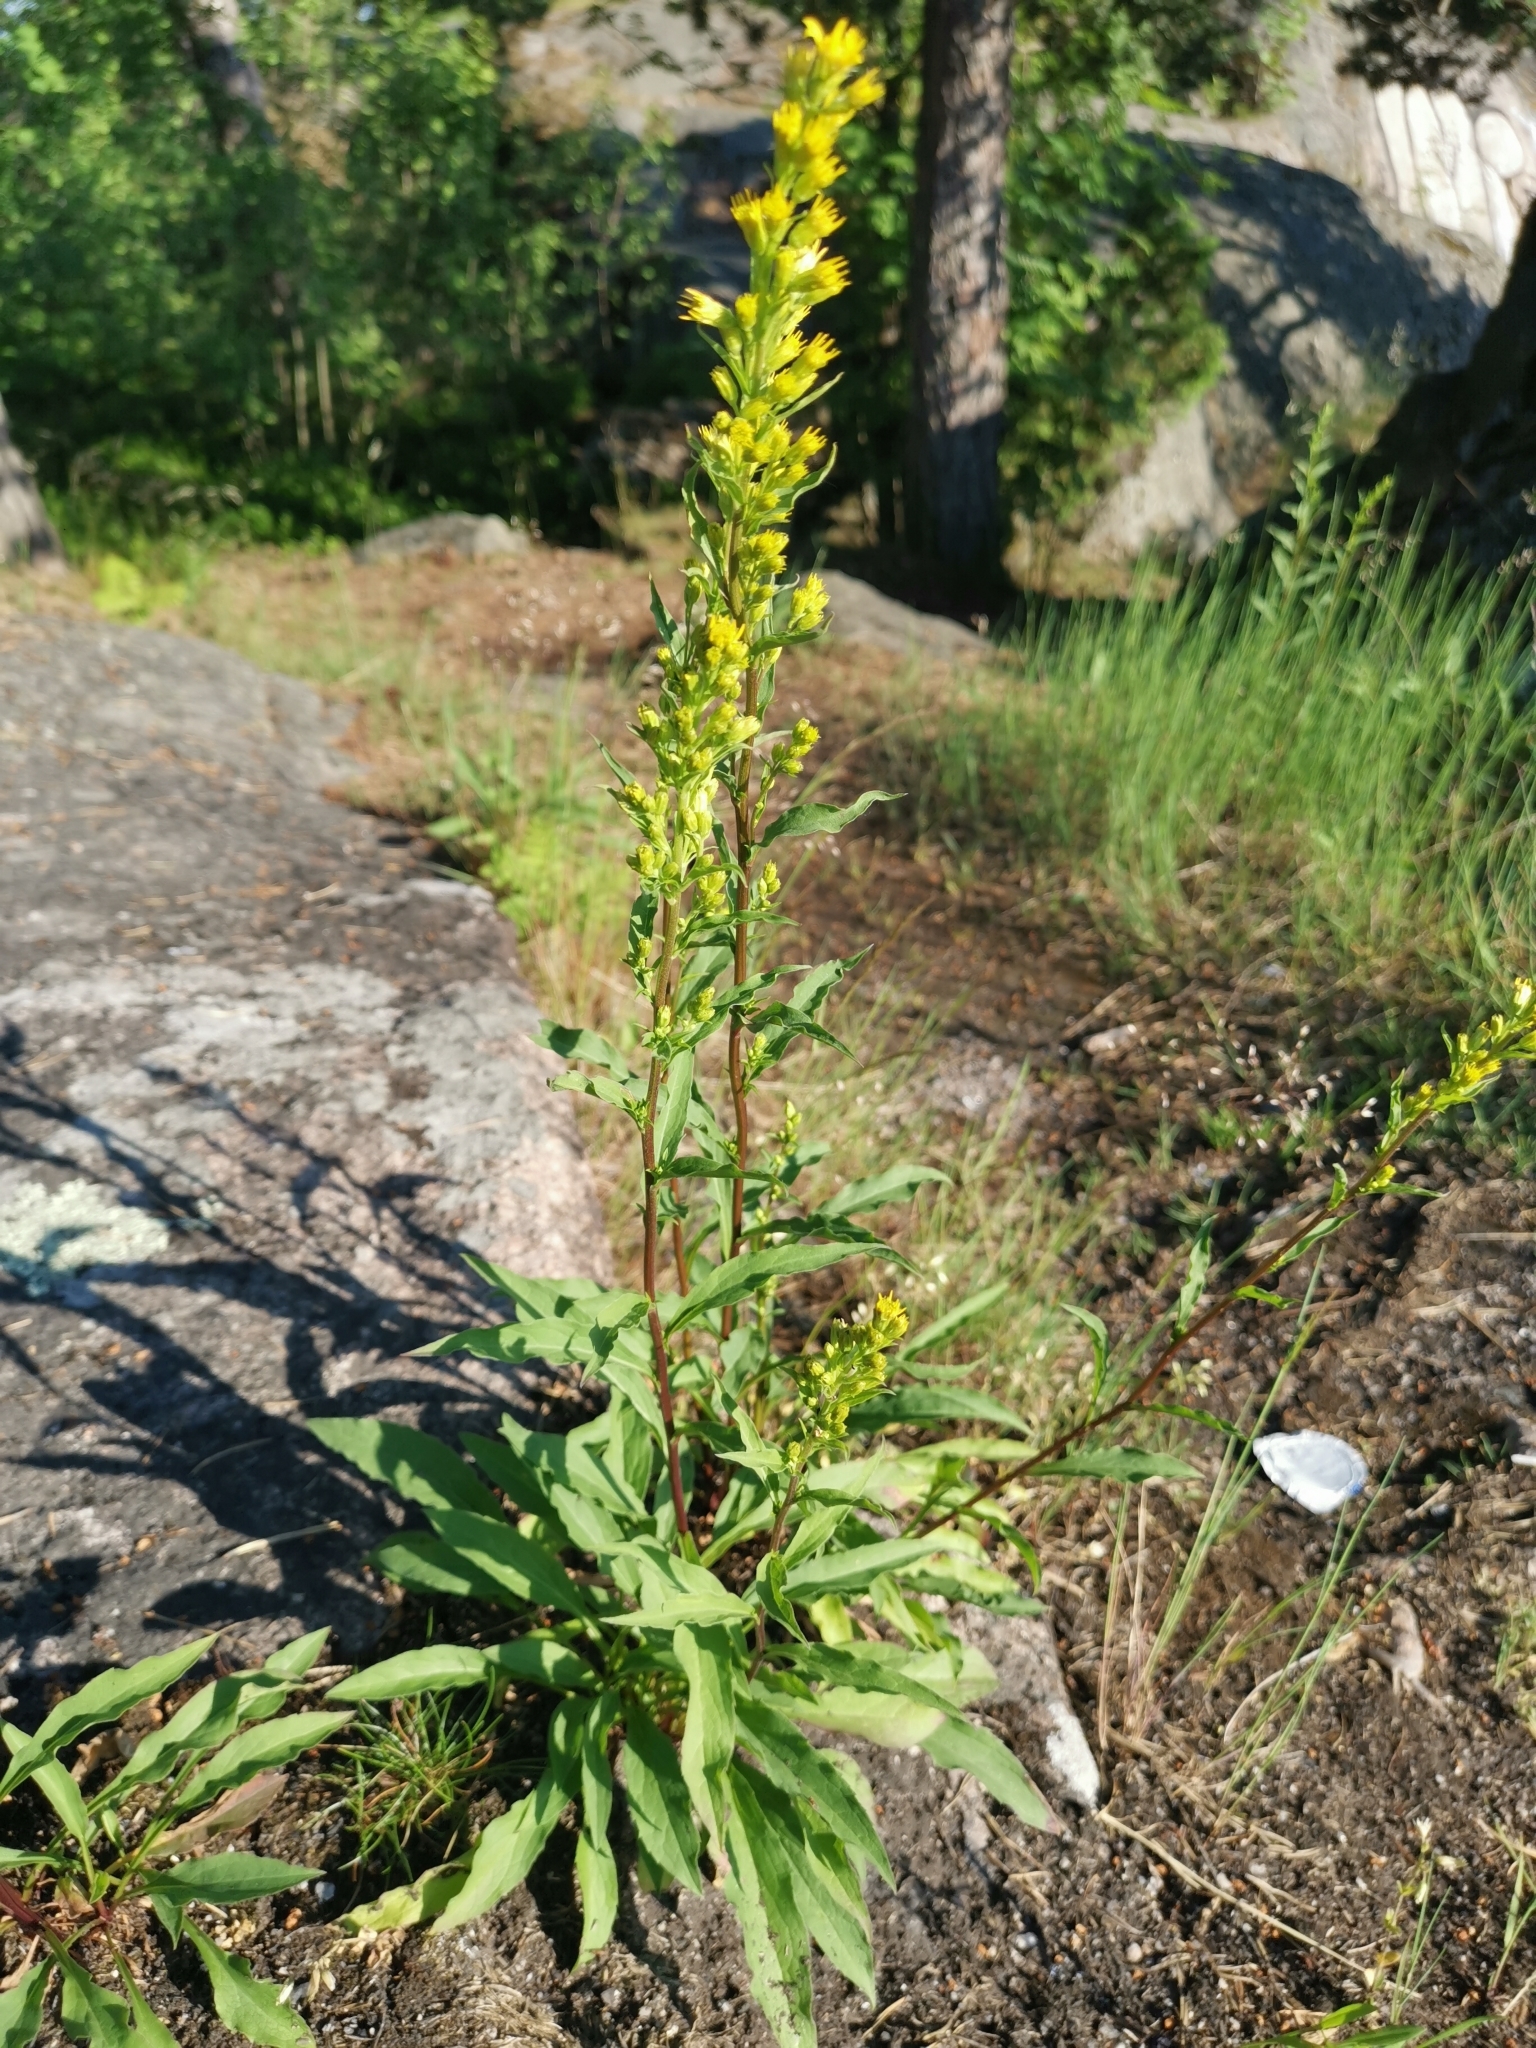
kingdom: Plantae
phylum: Tracheophyta
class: Magnoliopsida
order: Asterales
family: Asteraceae
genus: Solidago
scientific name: Solidago virgaurea
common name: Goldenrod
